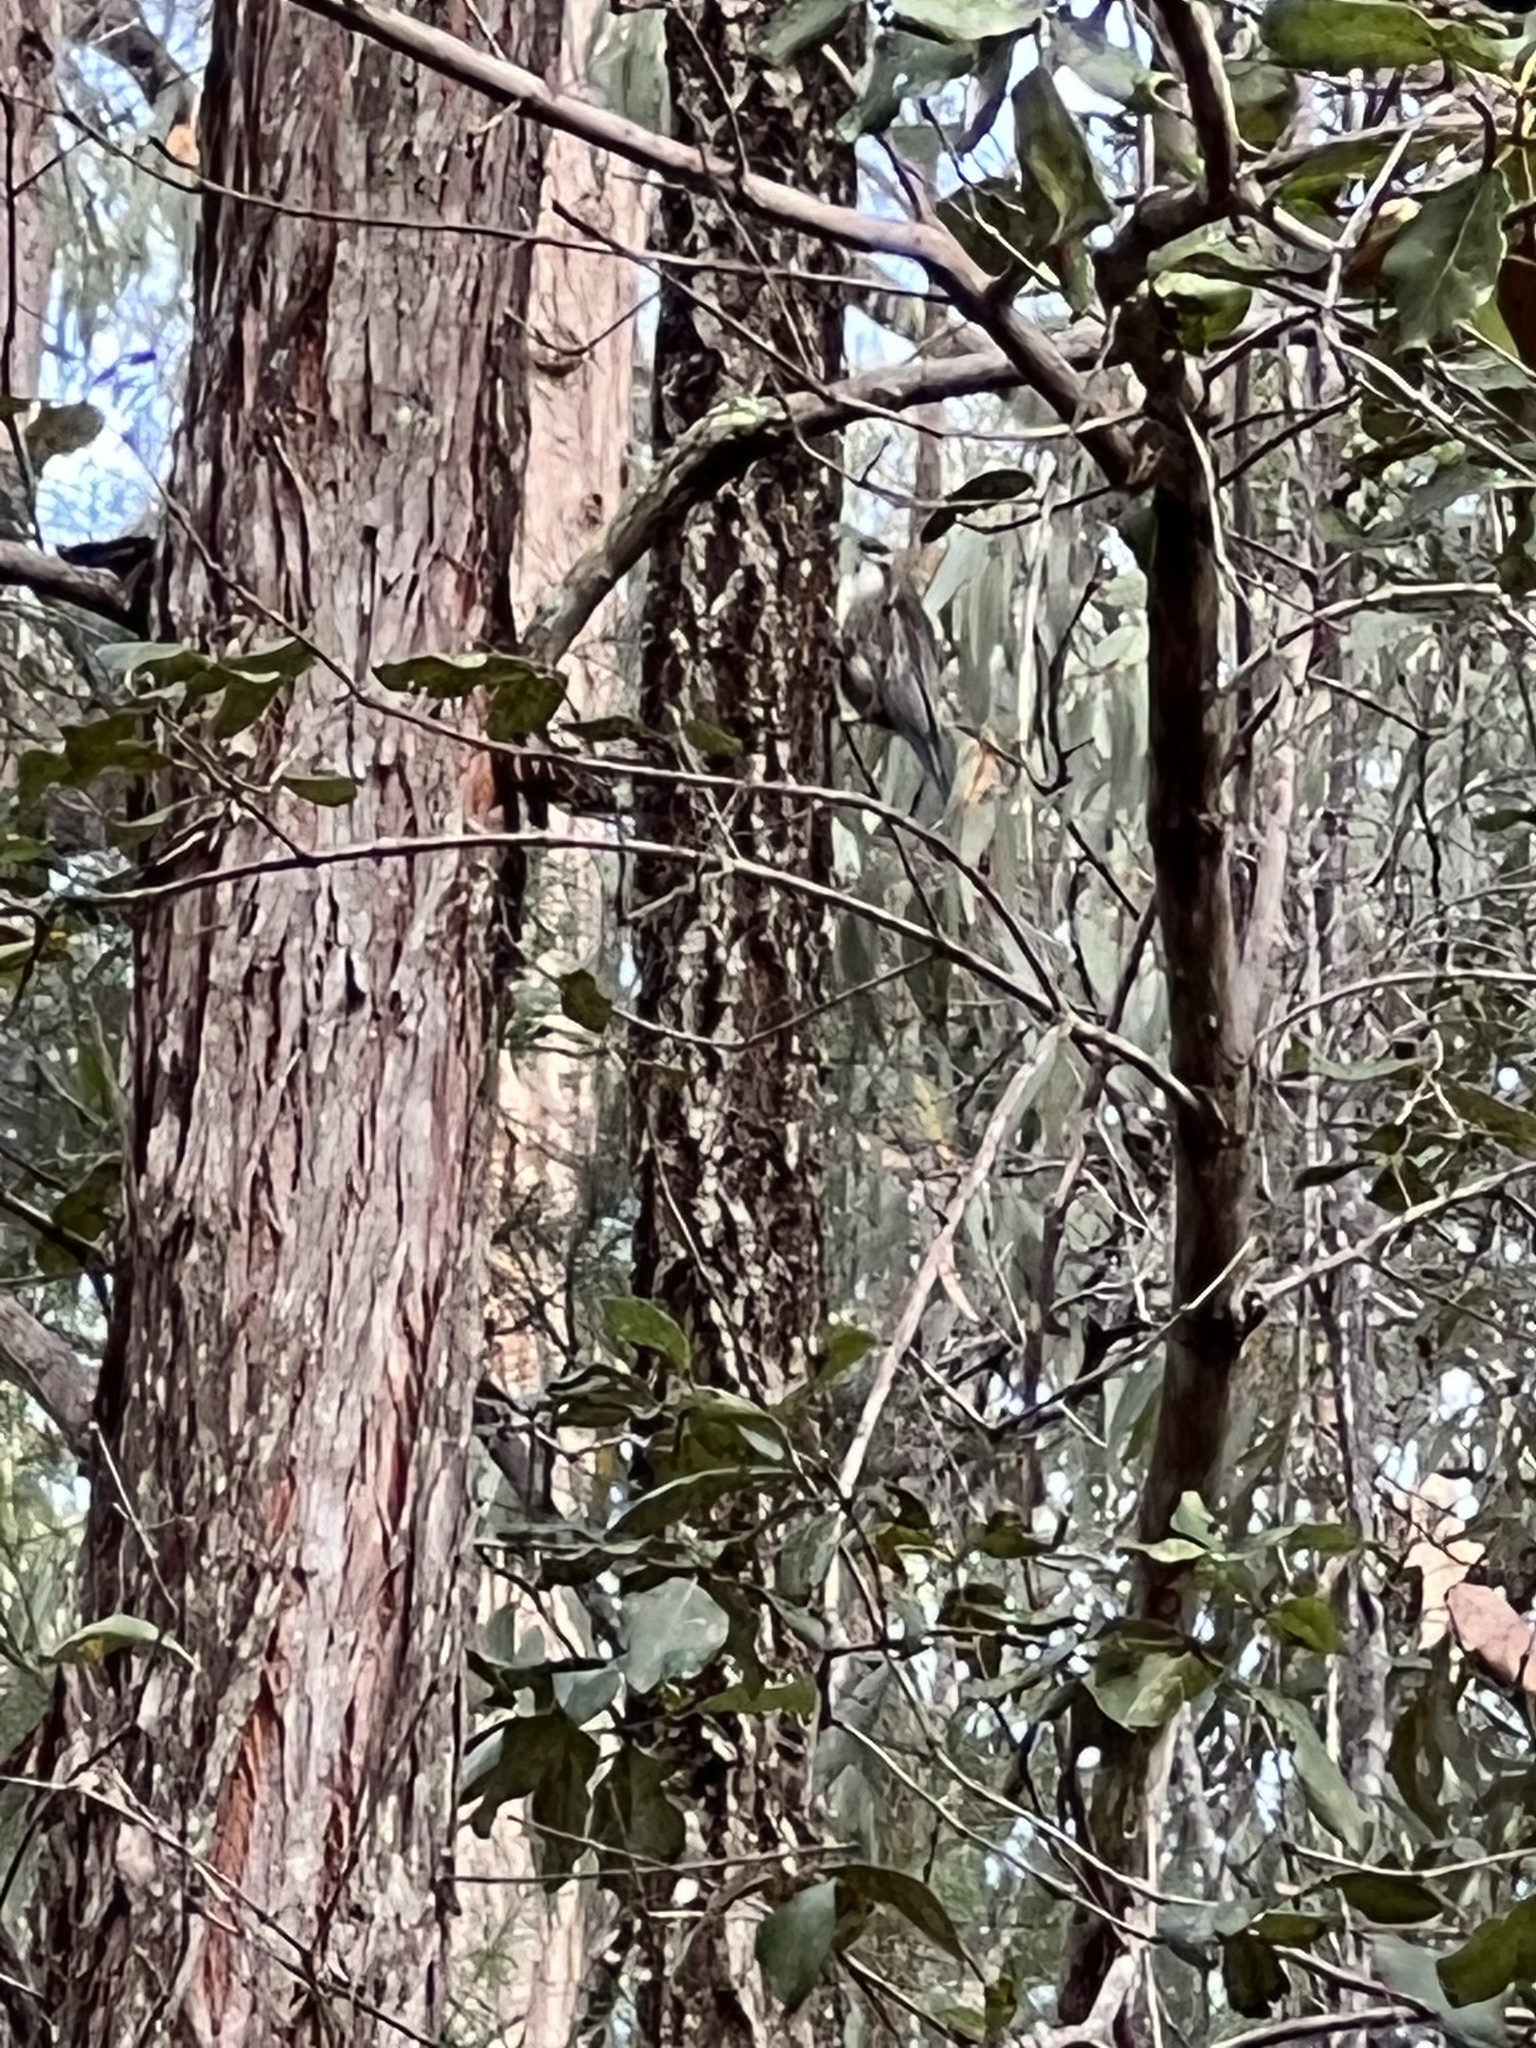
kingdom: Animalia
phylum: Chordata
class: Aves
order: Passeriformes
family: Climacteridae
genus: Cormobates
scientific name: Cormobates leucophaea
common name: White-throated treecreeper
